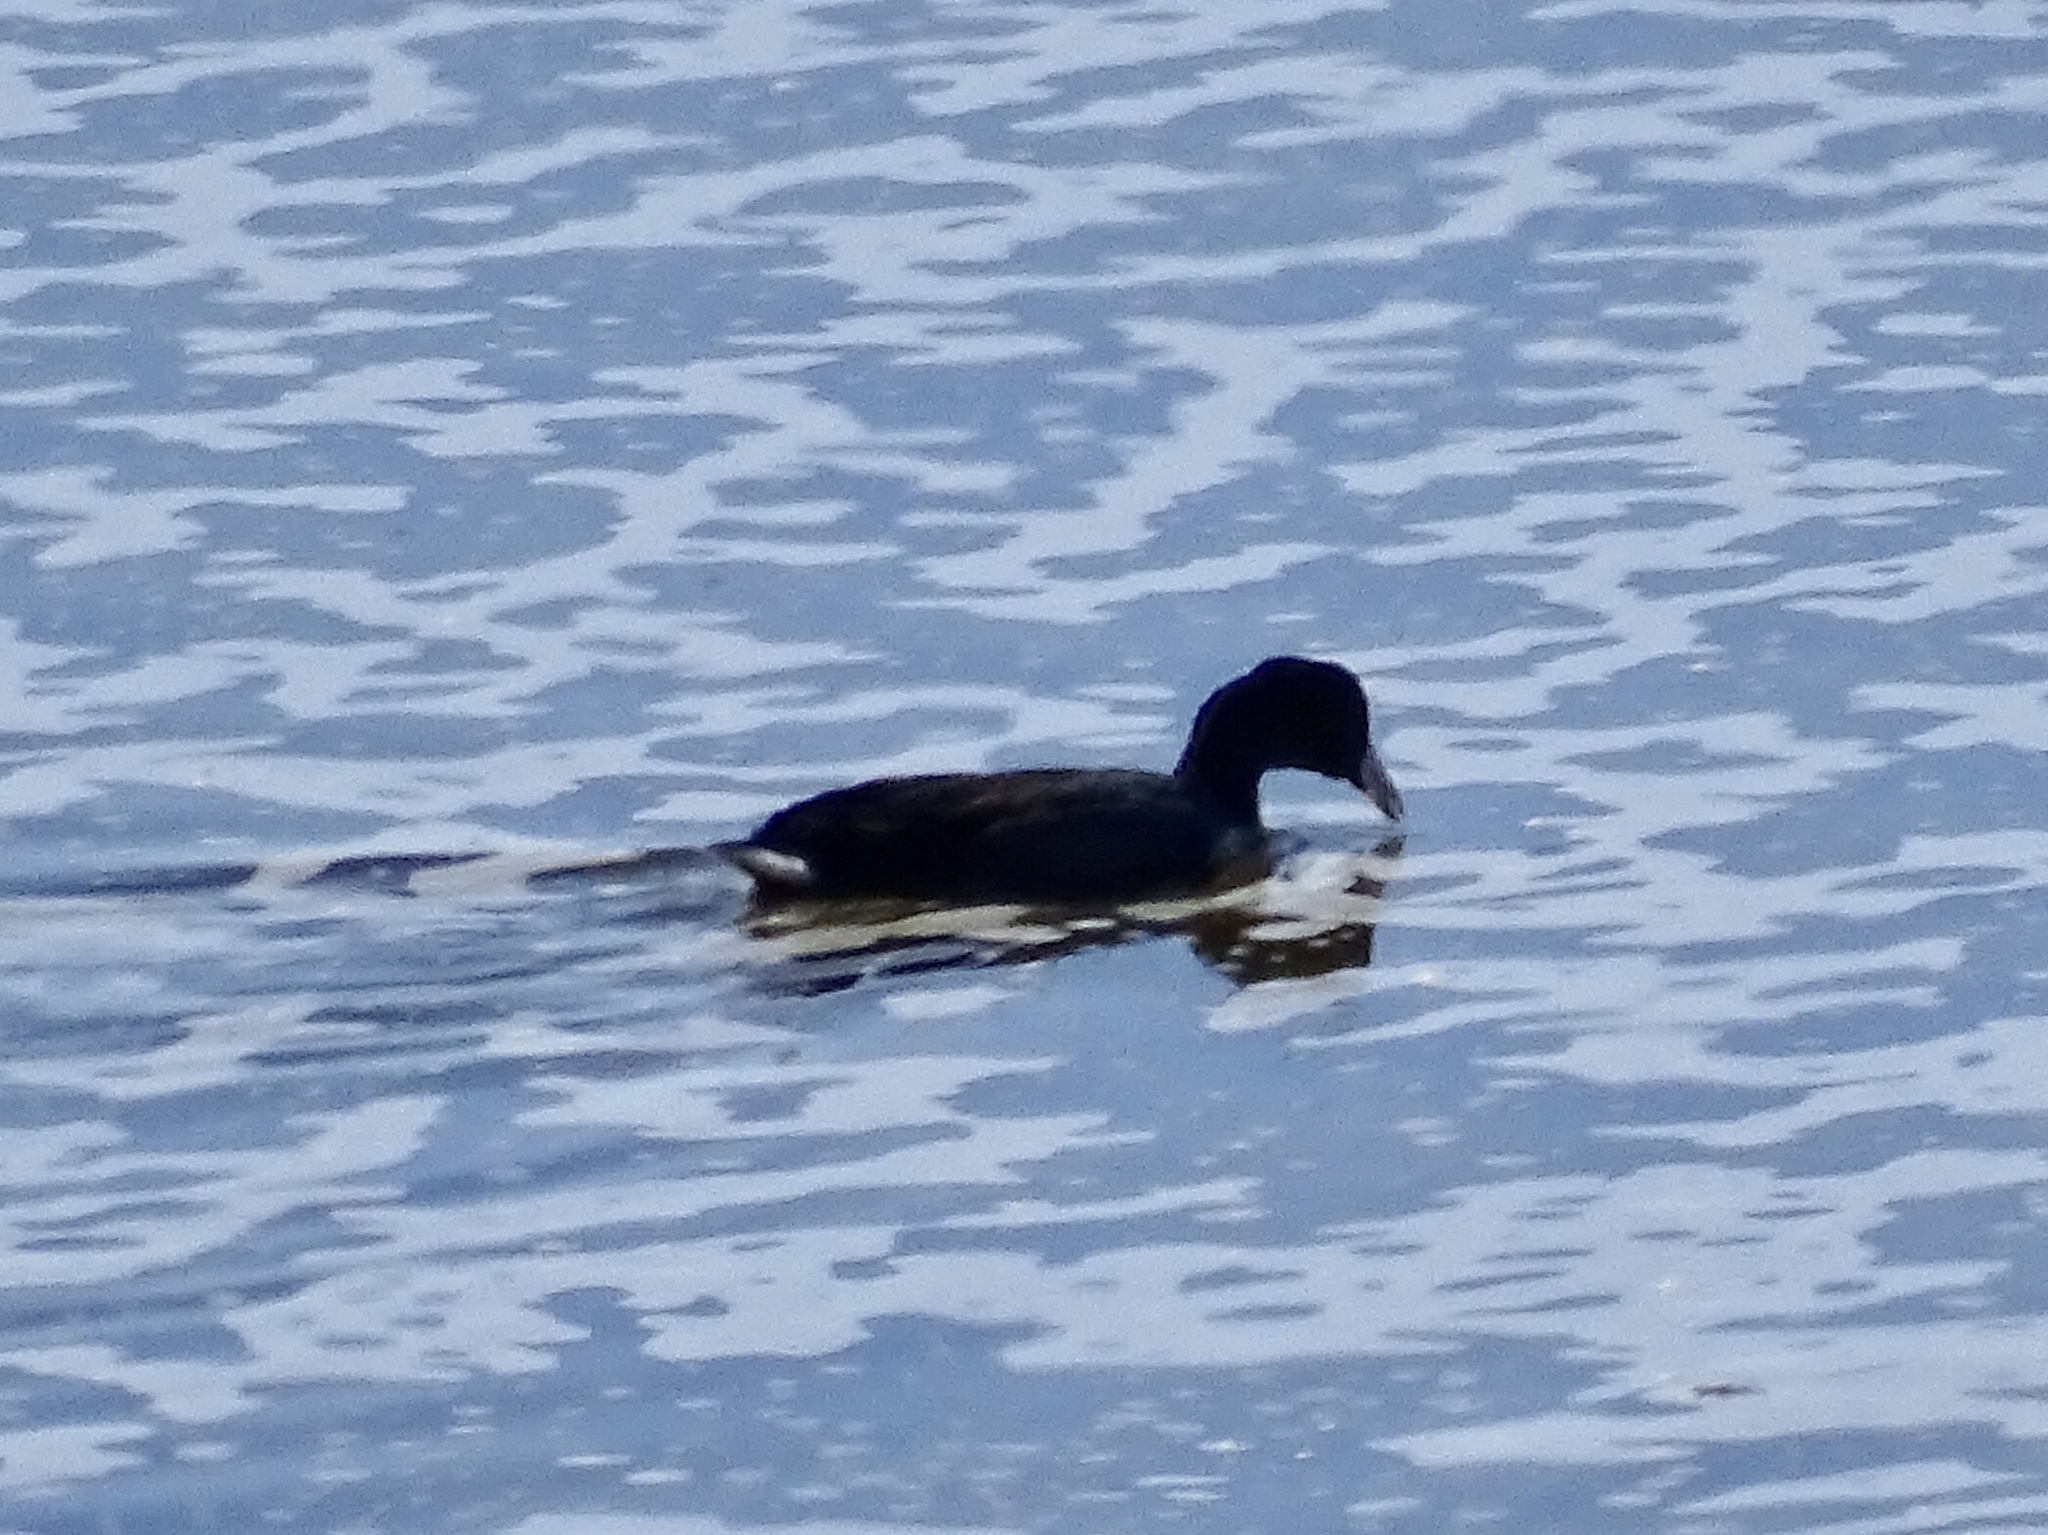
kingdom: Animalia
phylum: Chordata
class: Aves
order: Gruiformes
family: Rallidae
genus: Fulica
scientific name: Fulica americana
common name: American coot
